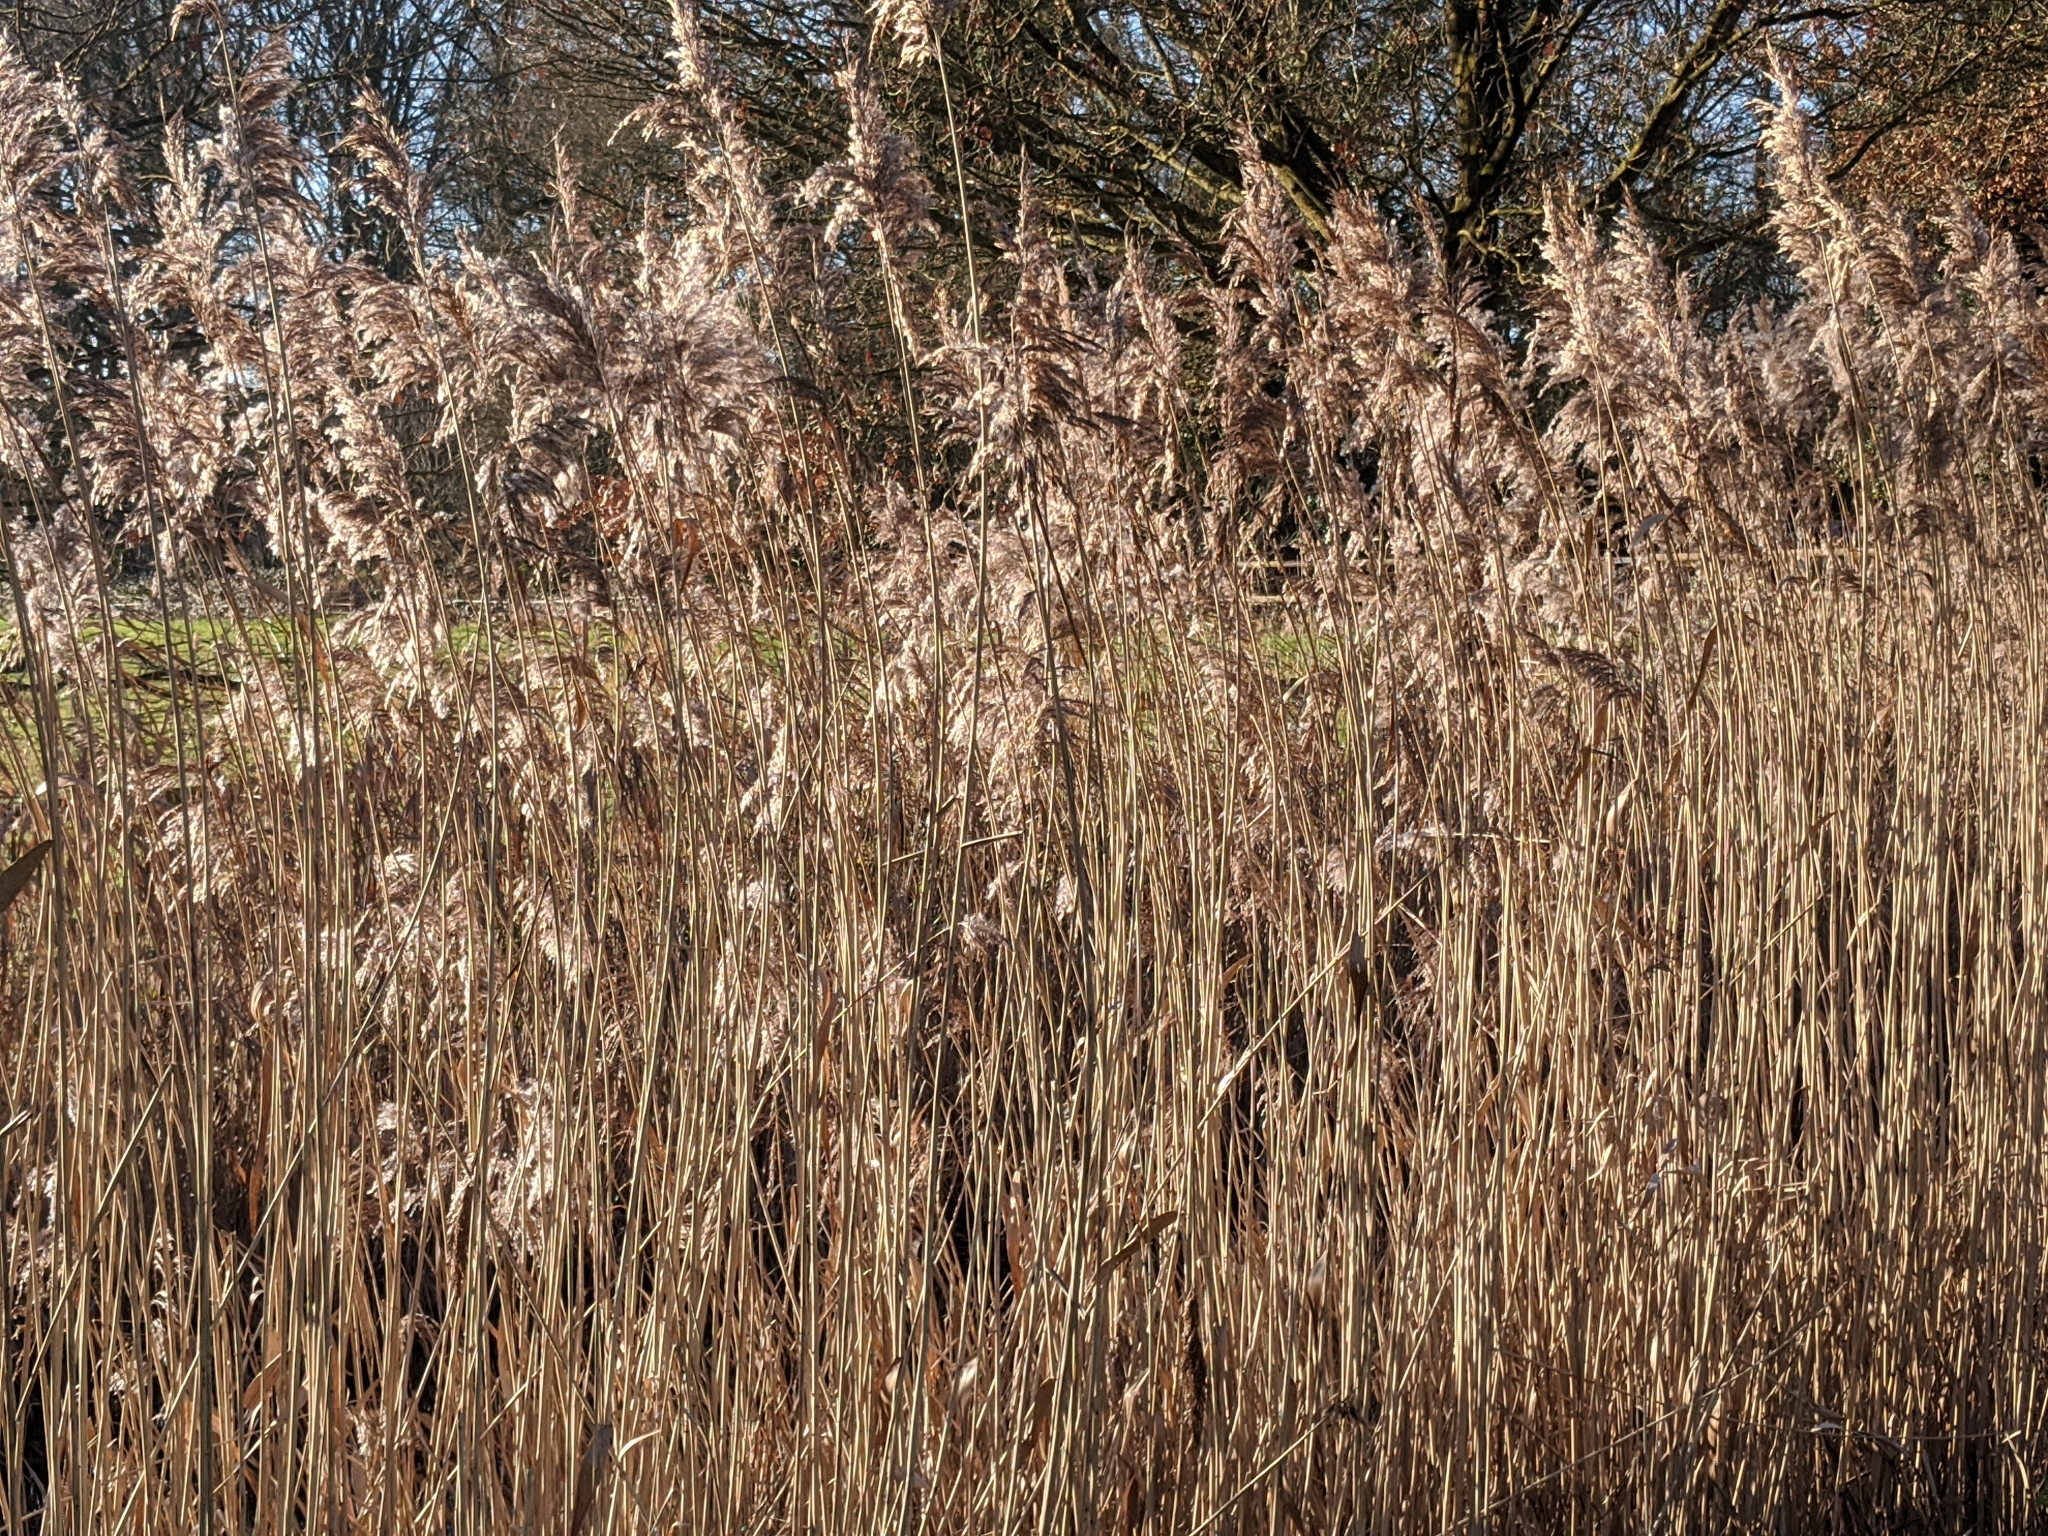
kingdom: Plantae
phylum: Tracheophyta
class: Liliopsida
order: Poales
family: Poaceae
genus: Phragmites
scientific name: Phragmites australis
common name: Common reed
